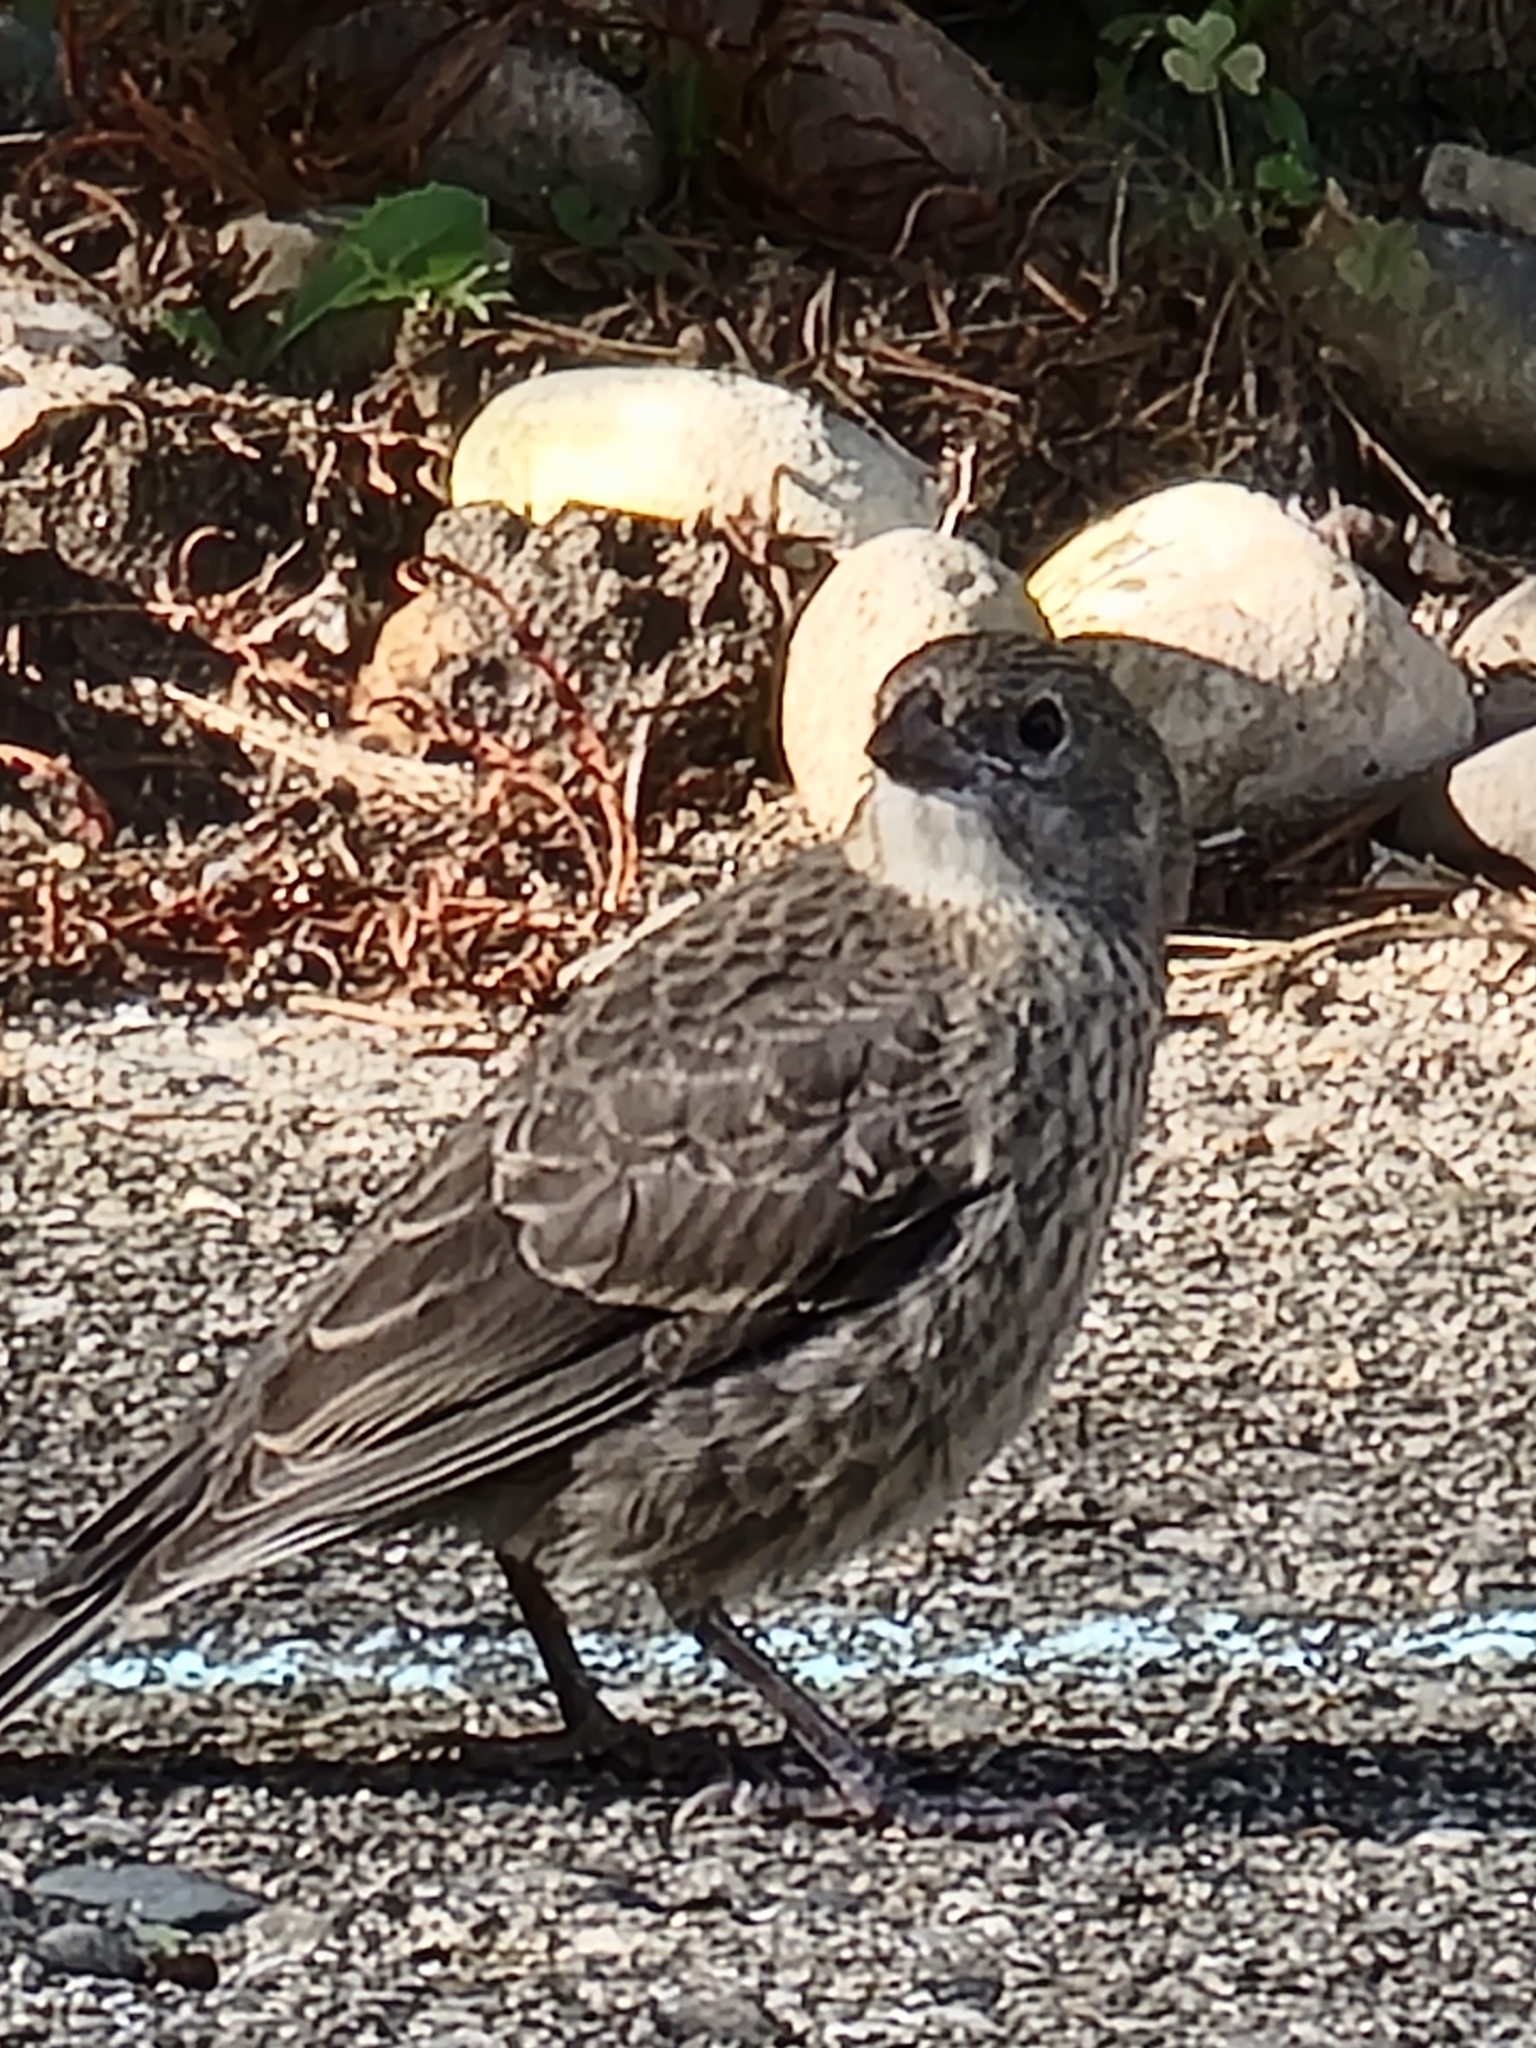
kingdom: Animalia
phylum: Chordata
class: Aves
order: Passeriformes
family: Icteridae
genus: Molothrus
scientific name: Molothrus ater
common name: Brown-headed cowbird
